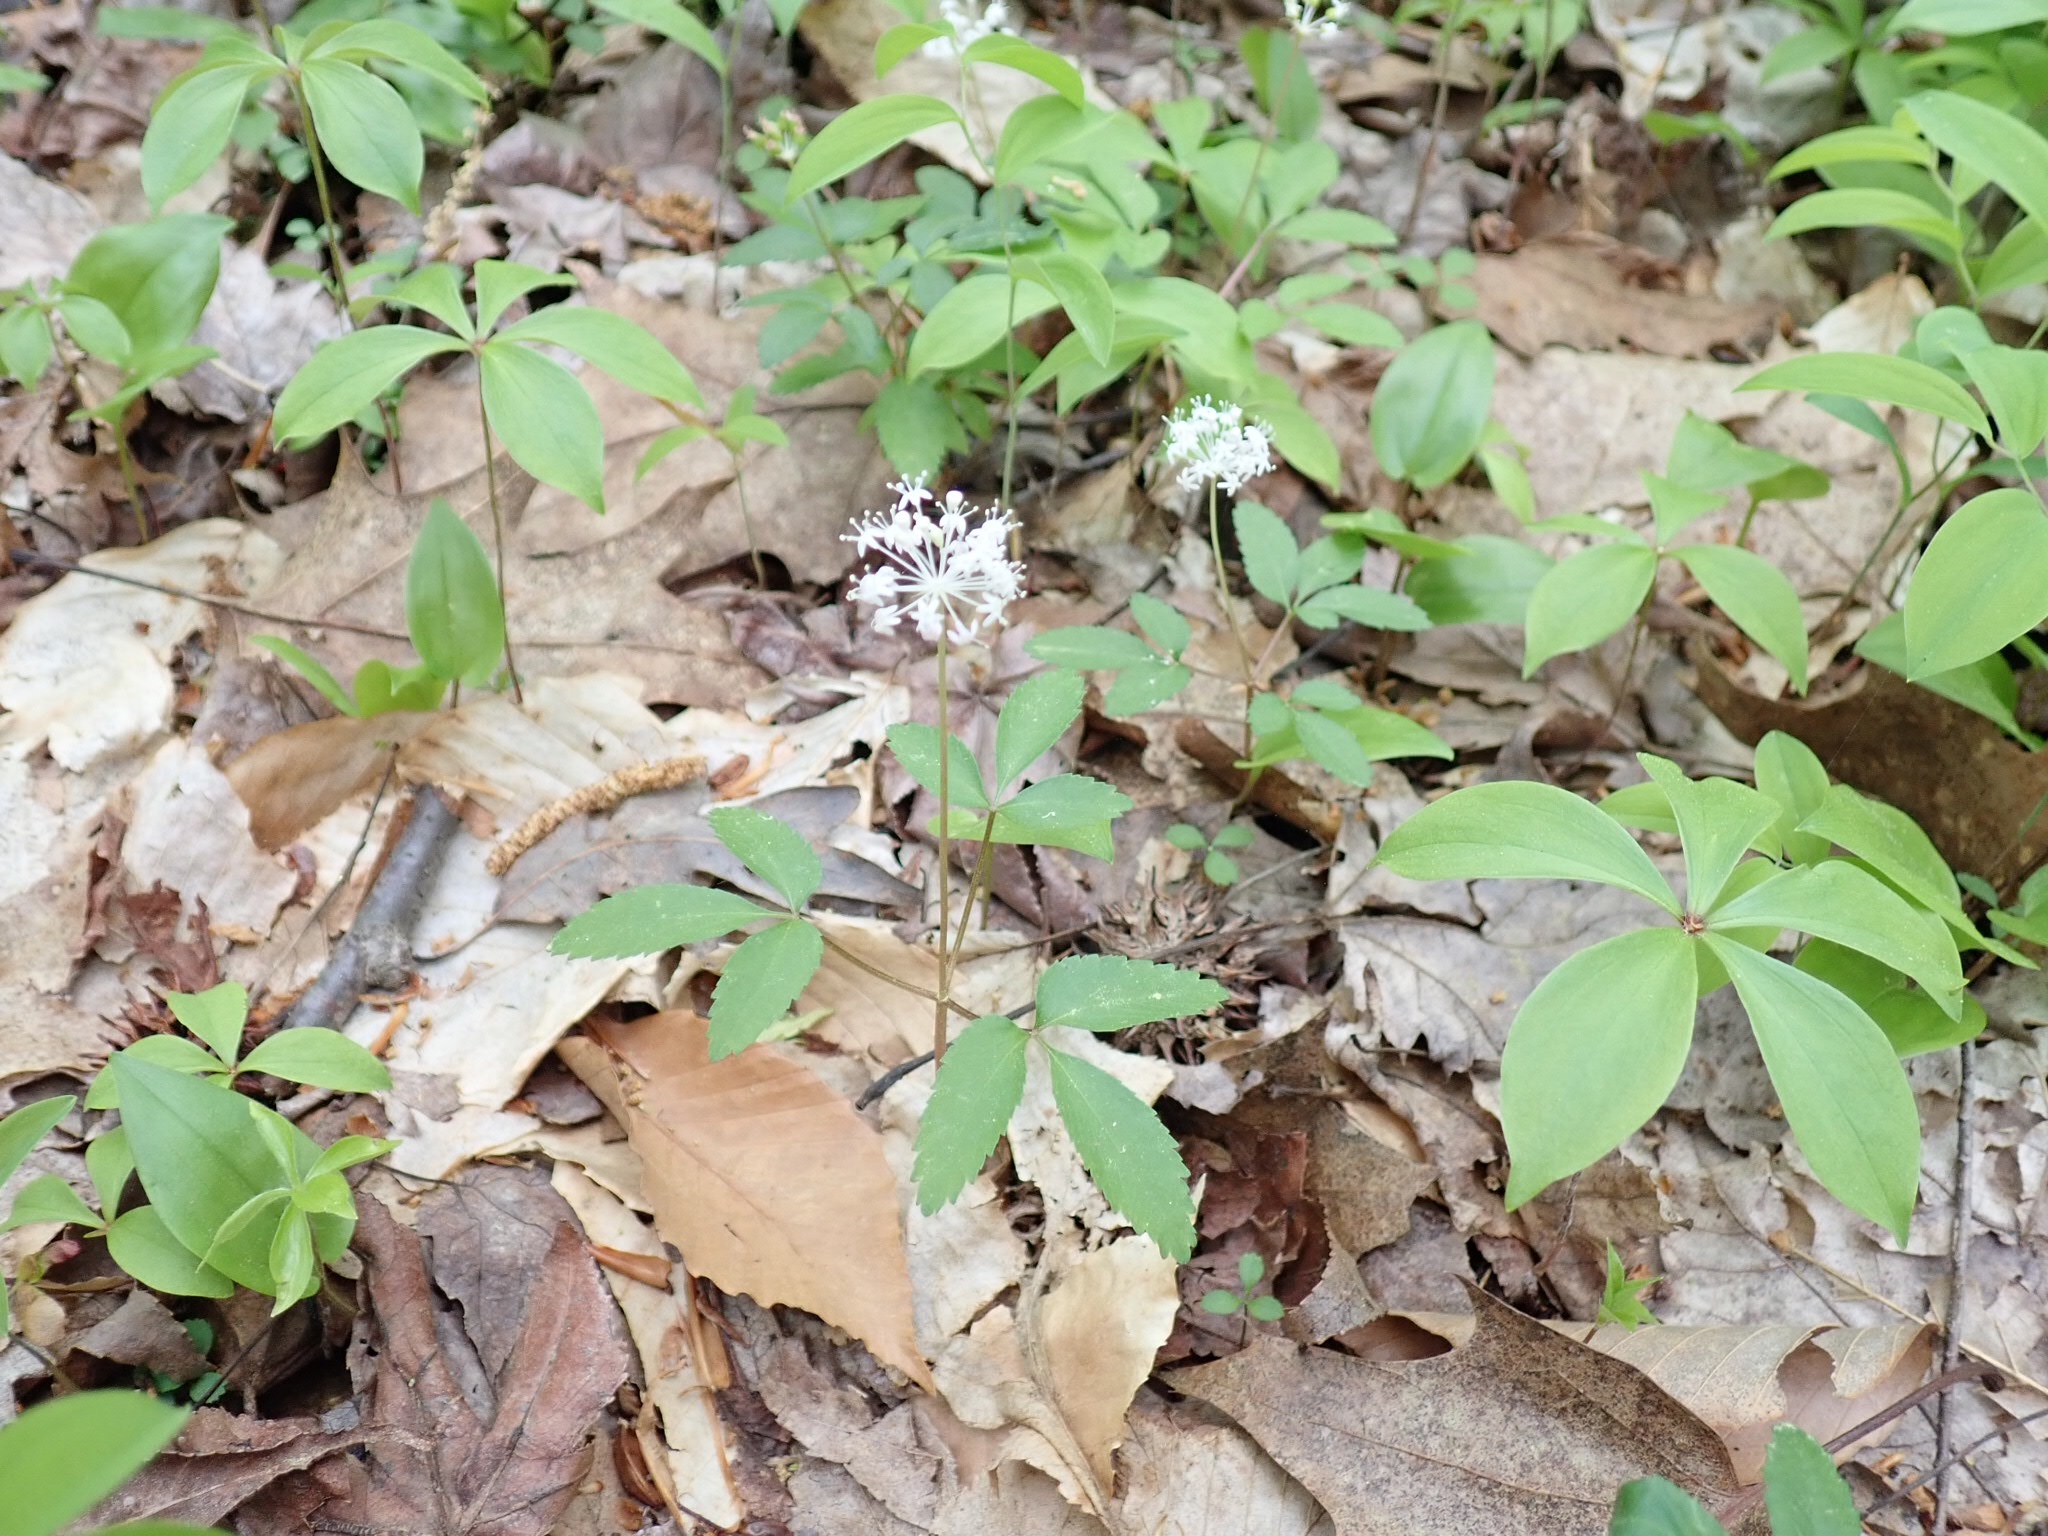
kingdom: Plantae
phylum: Tracheophyta
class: Magnoliopsida
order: Apiales
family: Araliaceae
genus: Panax
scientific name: Panax trifolius
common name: Dwarf ginseng
